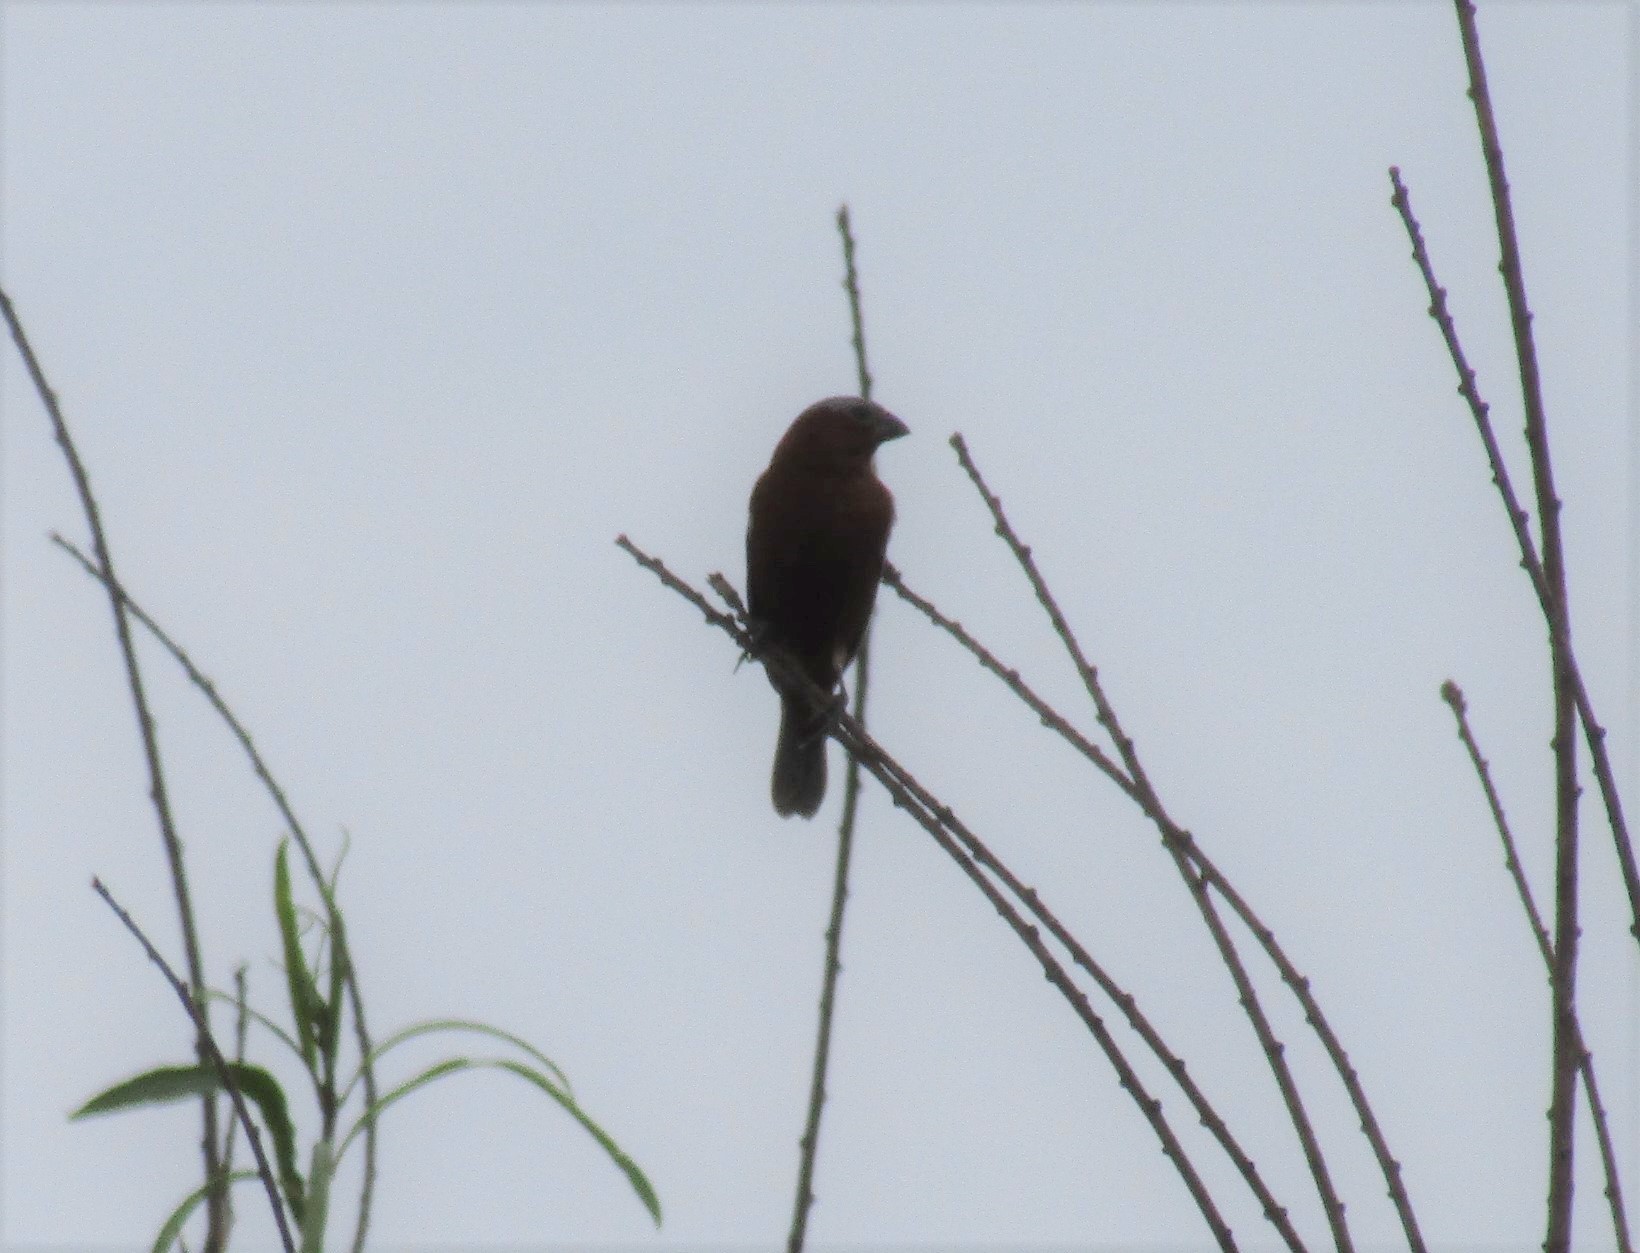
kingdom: Animalia
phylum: Chordata
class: Aves
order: Passeriformes
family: Thraupidae
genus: Sporophila
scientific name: Sporophila cinnamomea
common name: Chestnut seedeater
